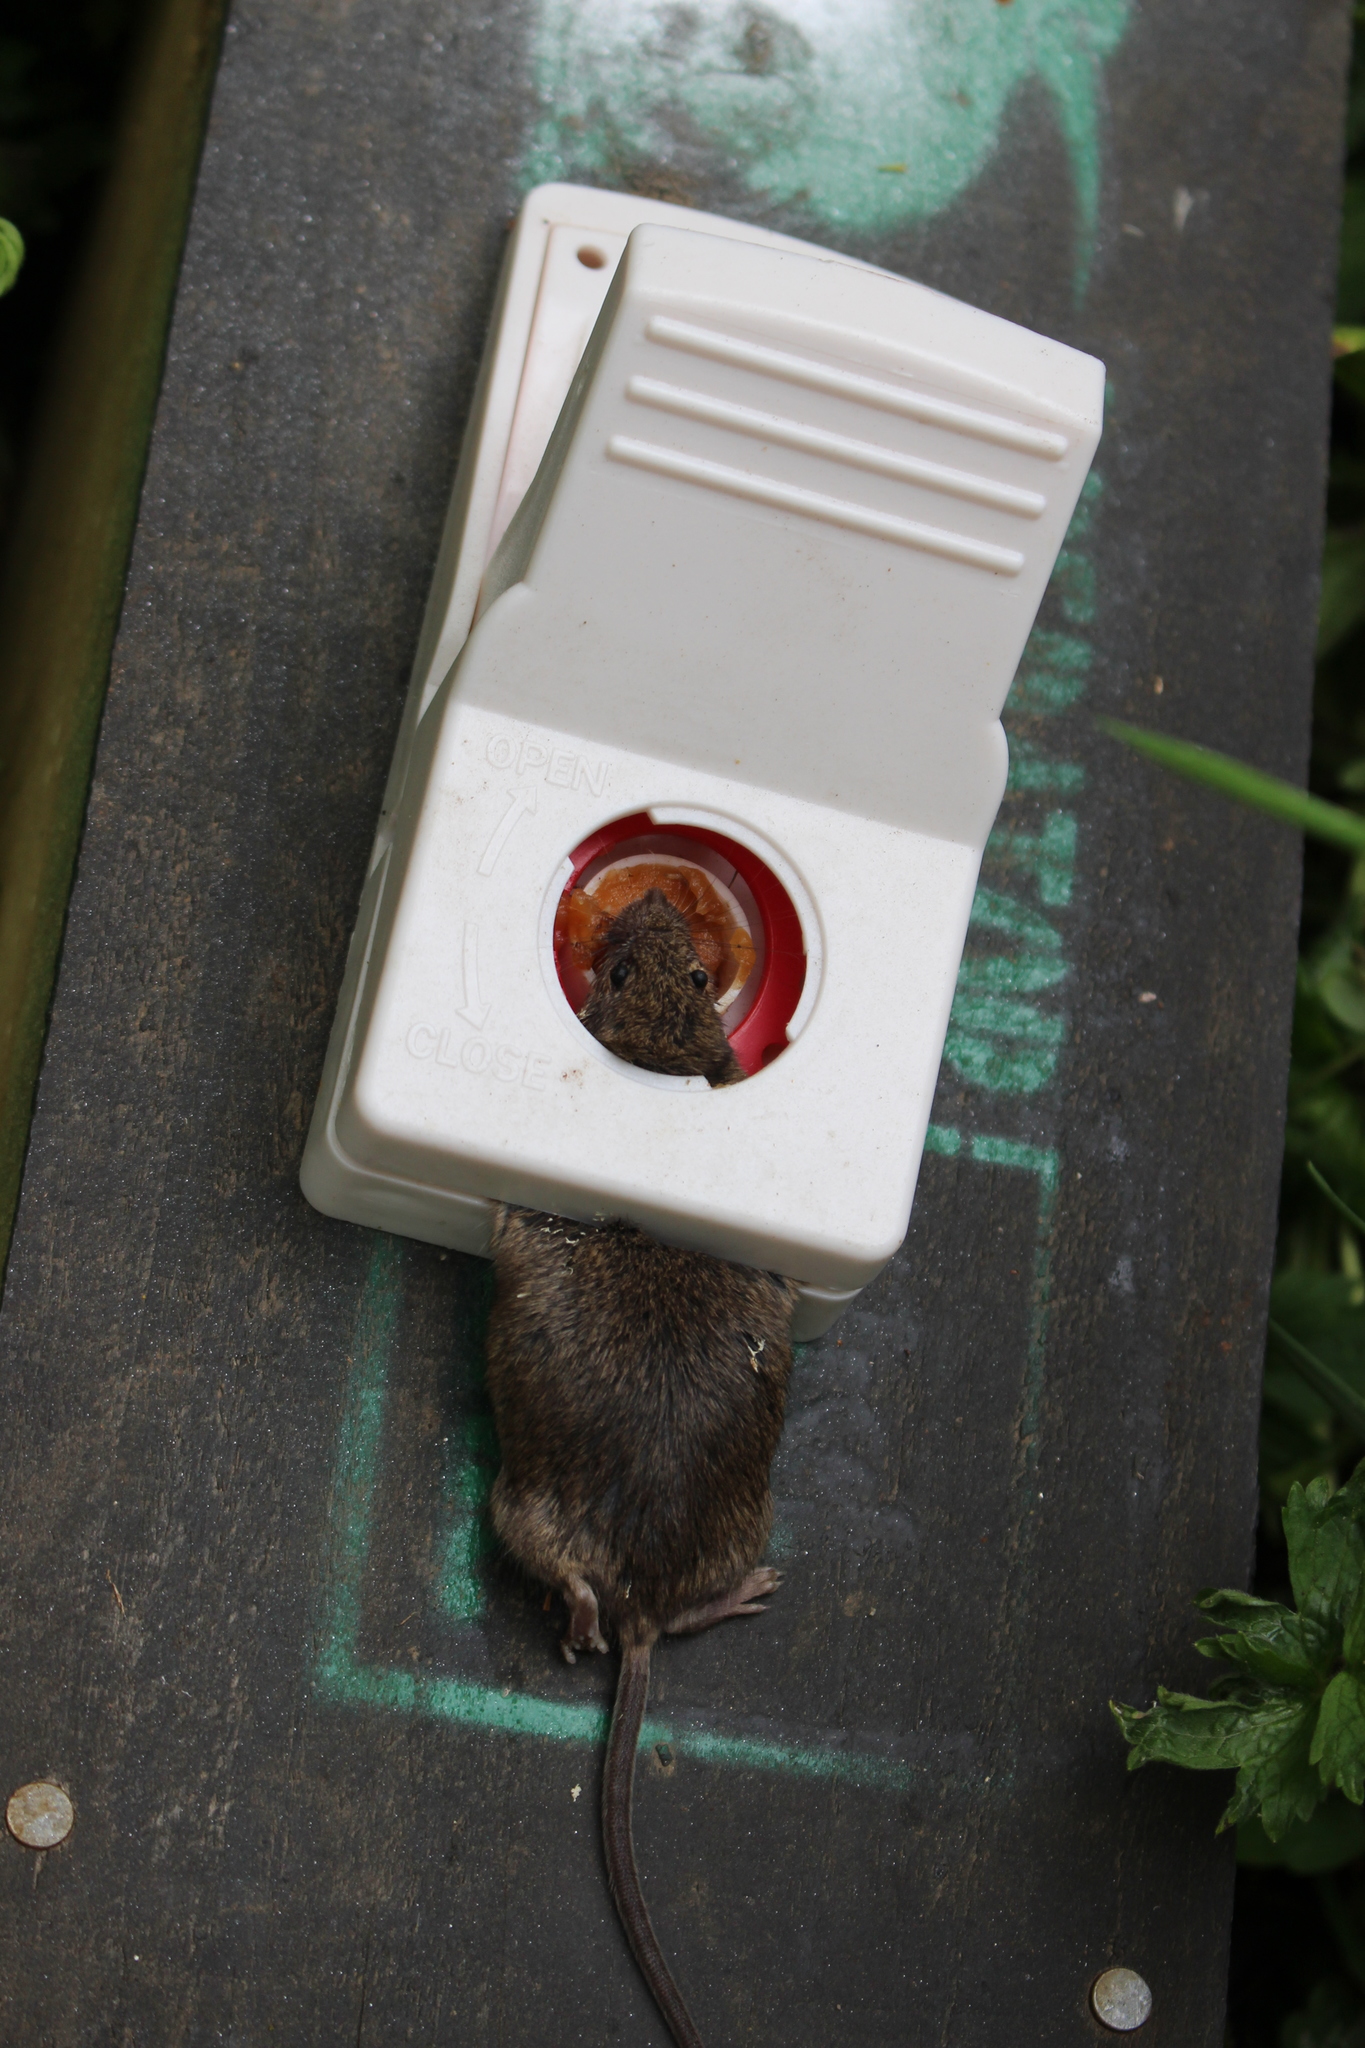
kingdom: Animalia
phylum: Chordata
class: Mammalia
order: Rodentia
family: Muridae
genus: Mus
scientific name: Mus musculus
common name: House mouse
